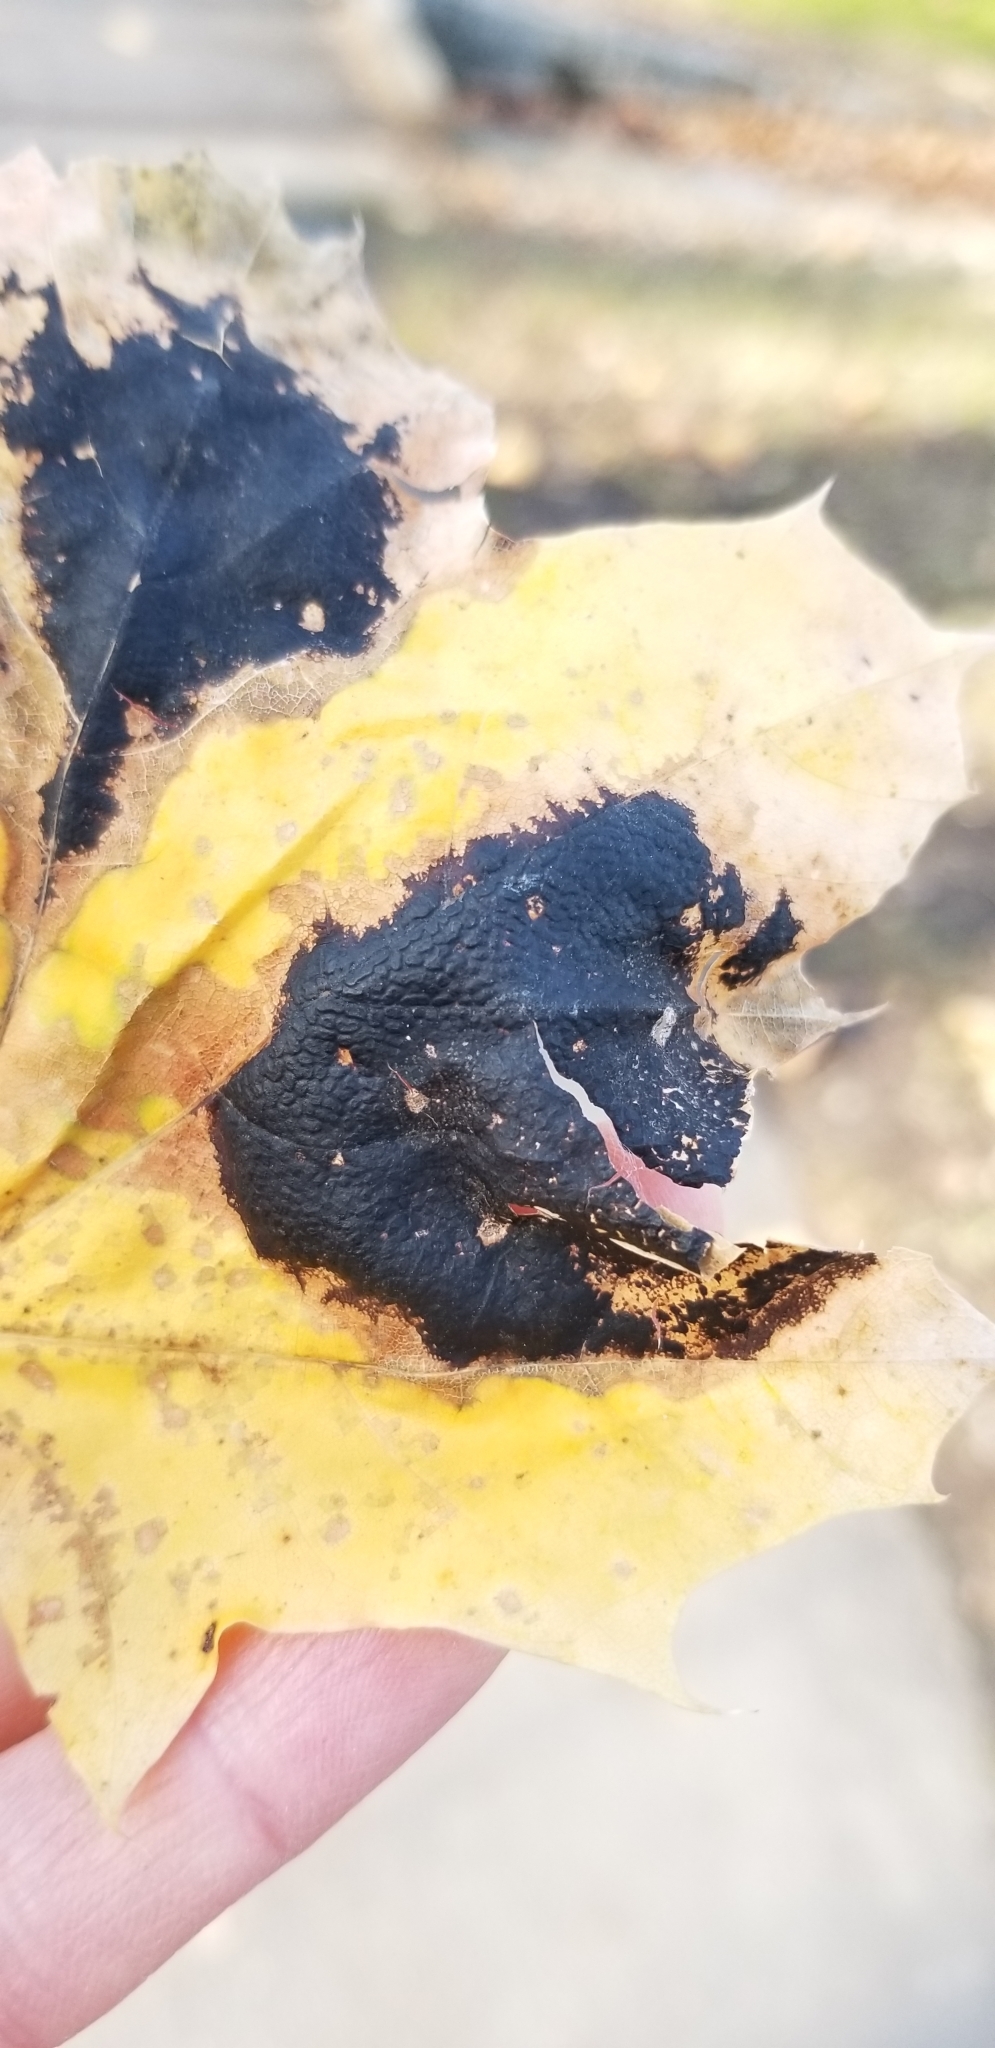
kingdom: Fungi
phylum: Ascomycota
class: Leotiomycetes
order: Rhytismatales
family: Rhytismataceae
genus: Rhytisma
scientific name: Rhytisma acerinum
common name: European tar spot
